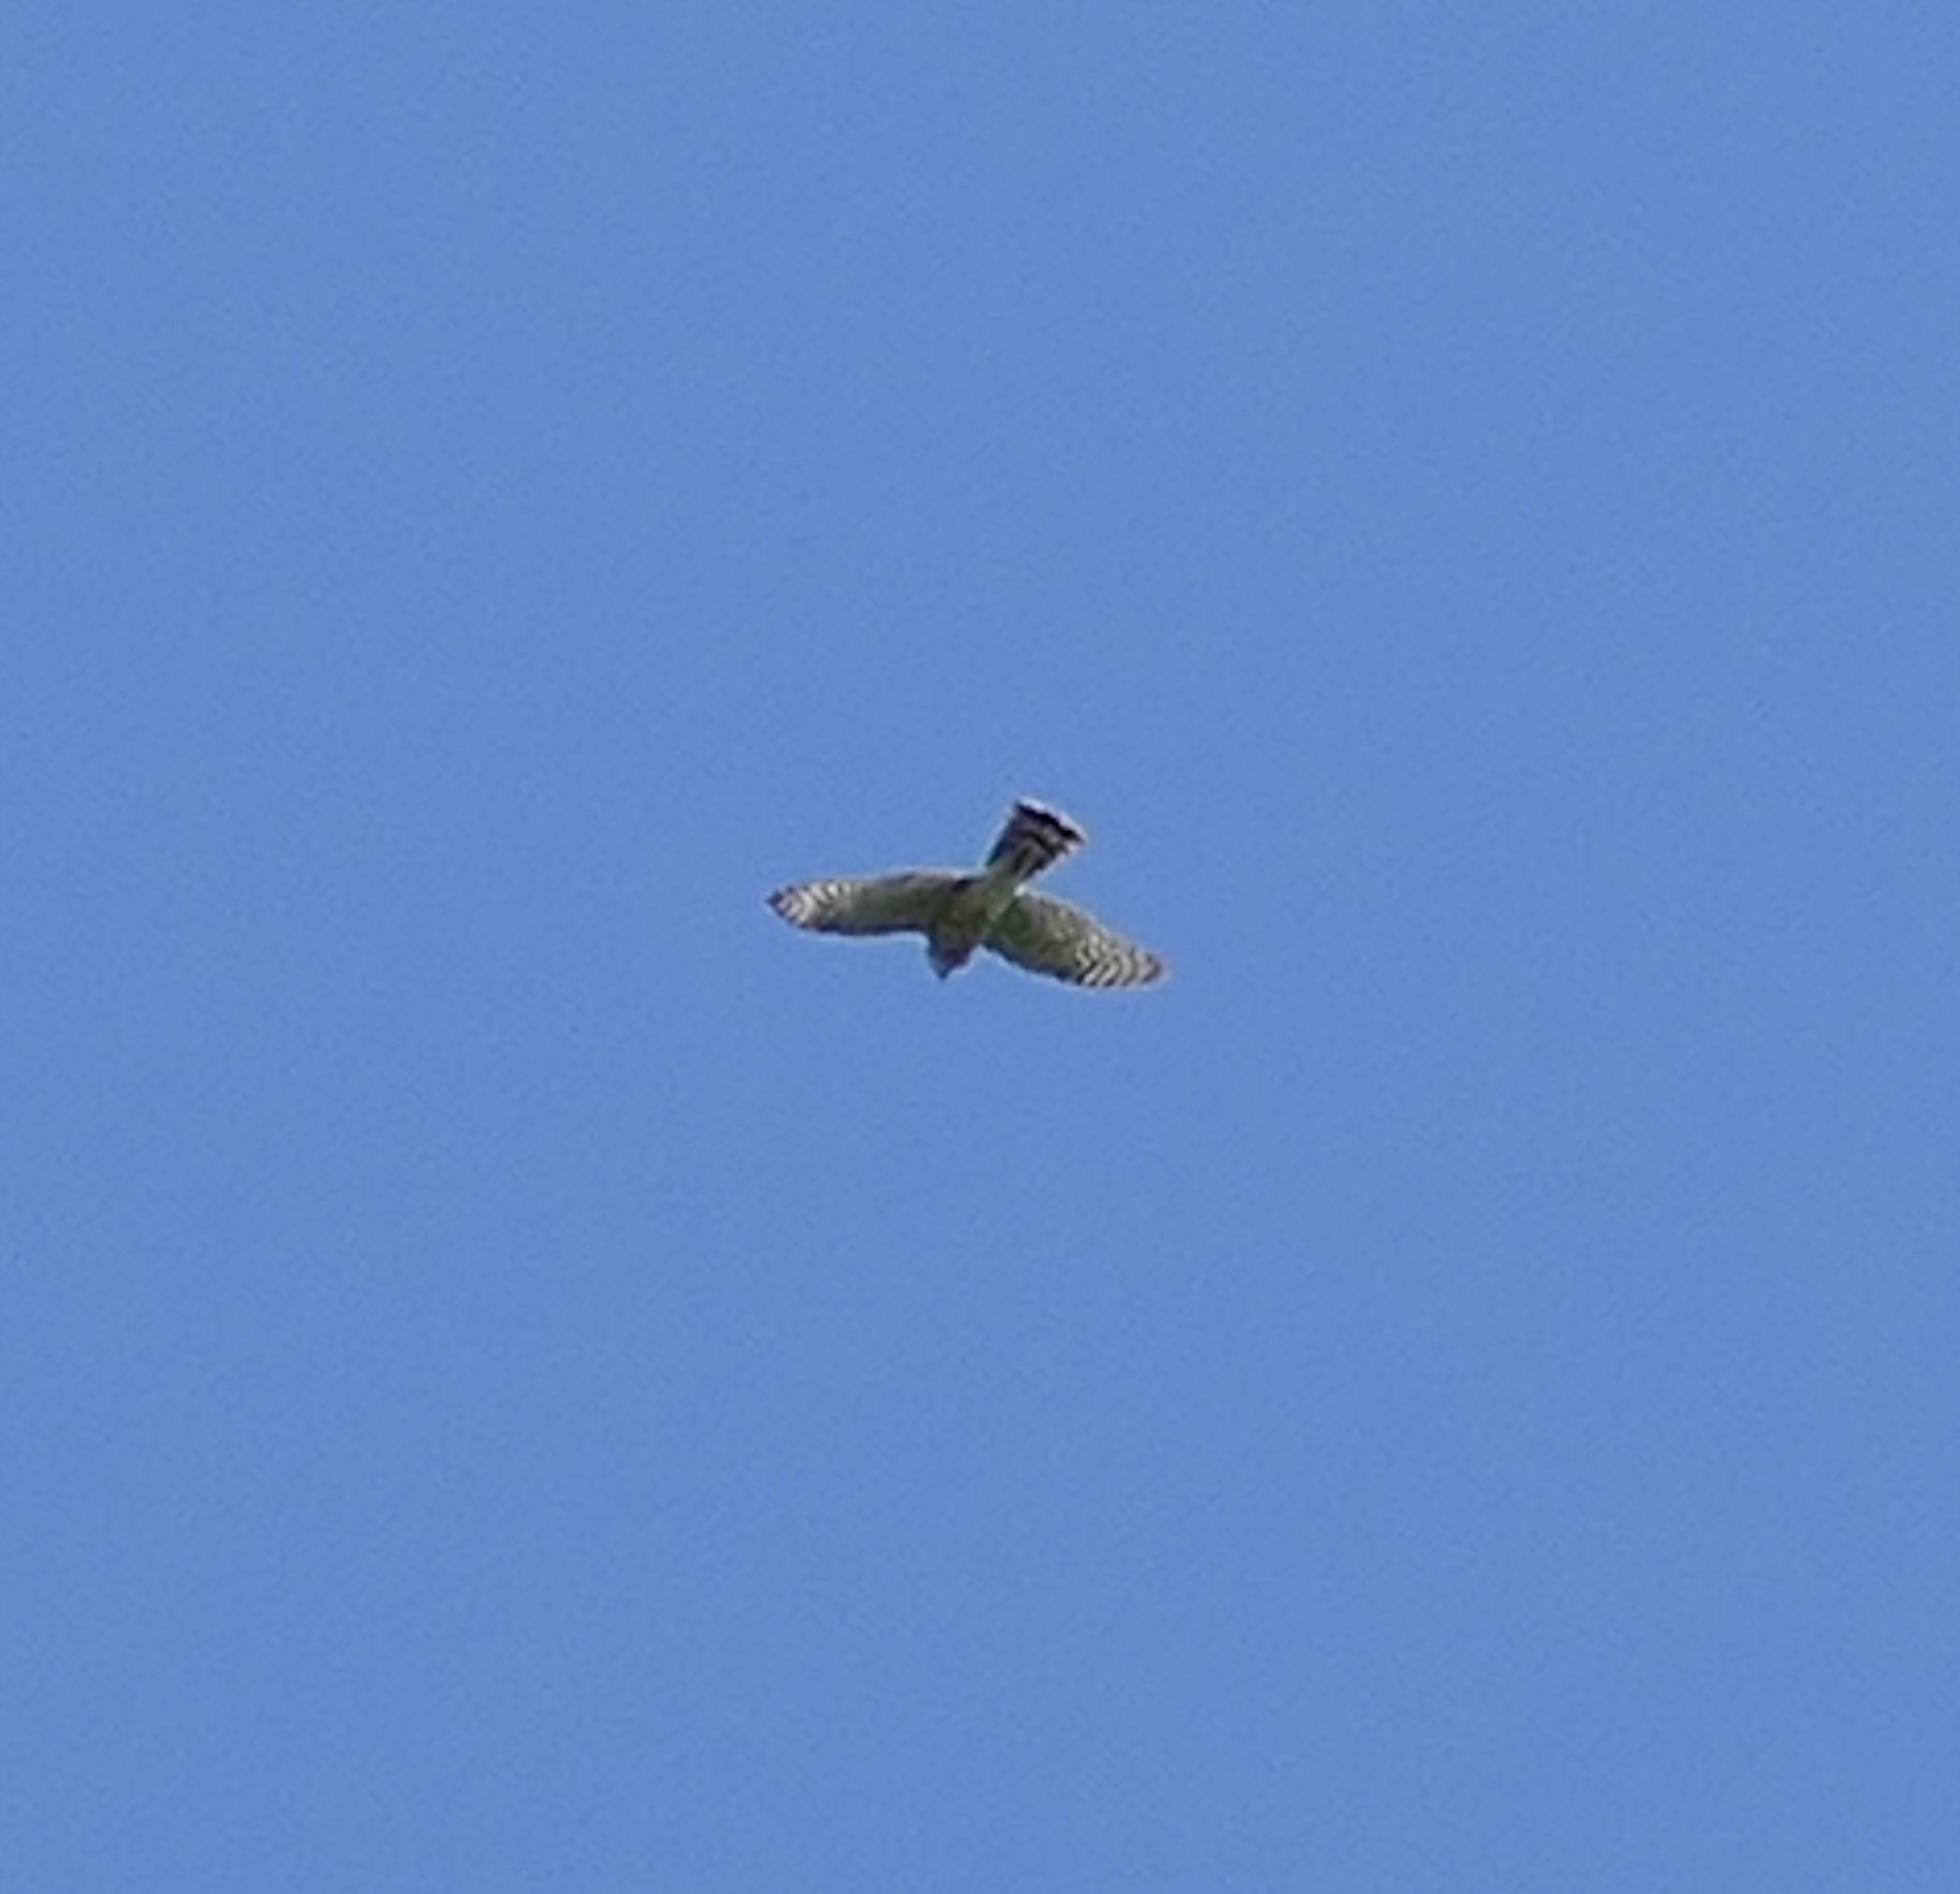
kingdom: Animalia
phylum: Chordata
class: Aves
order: Accipitriformes
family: Accipitridae
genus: Accipiter
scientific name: Accipiter striatus
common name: Sharp-shinned hawk
